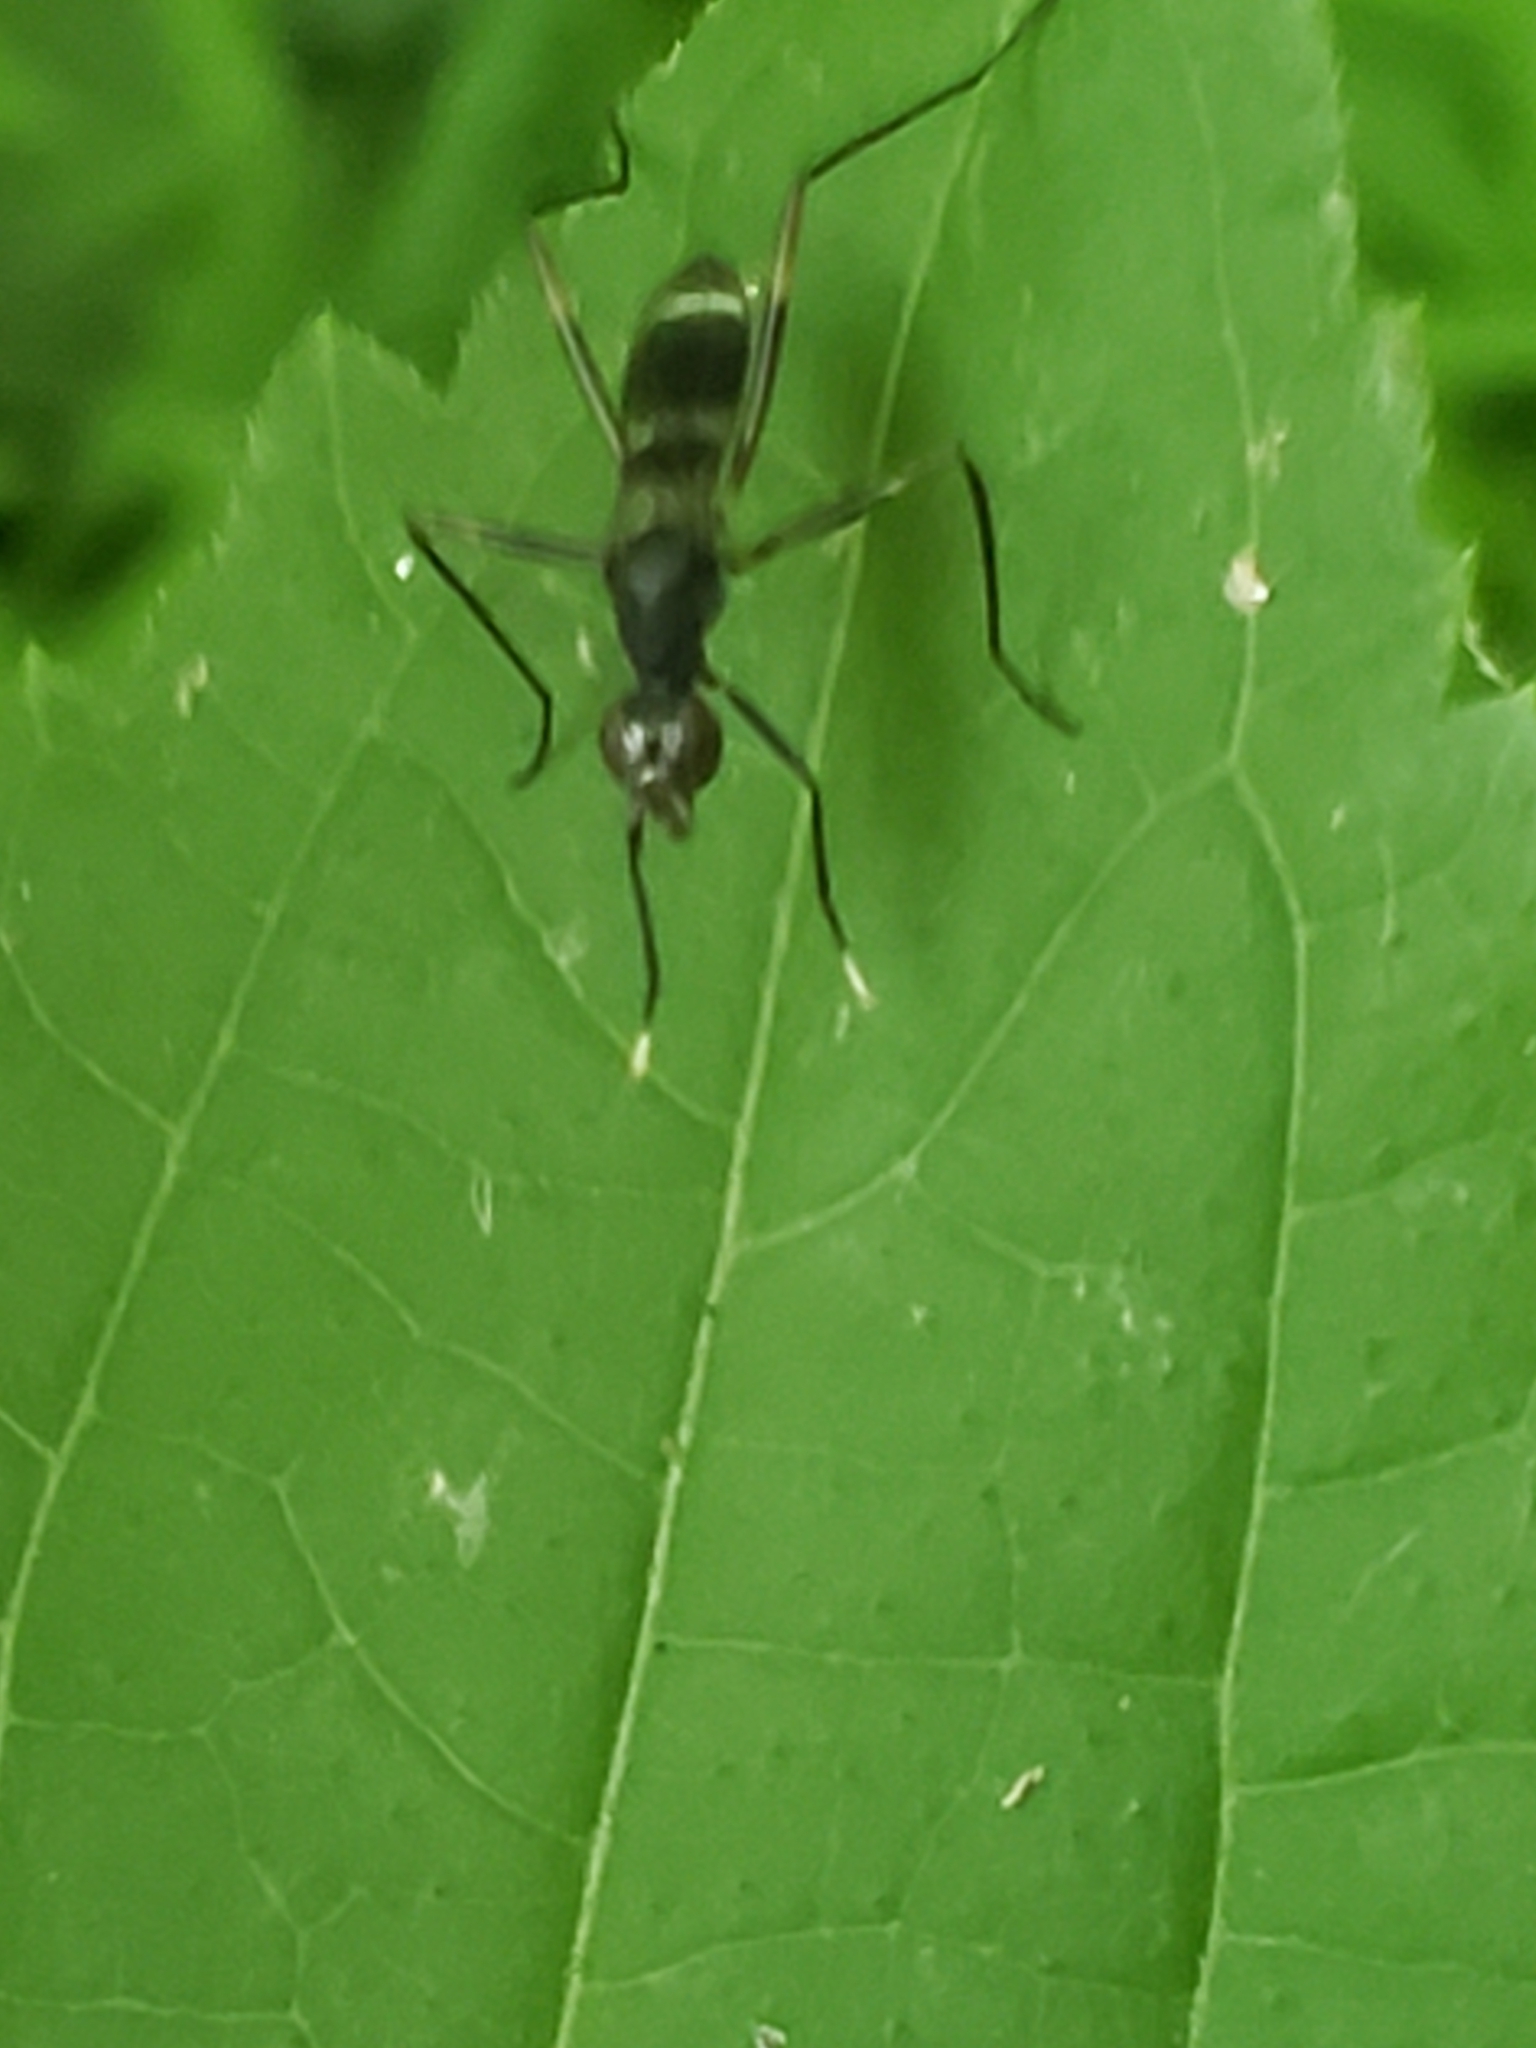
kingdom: Animalia
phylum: Arthropoda
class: Insecta
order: Diptera
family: Micropezidae
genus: Taeniaptera
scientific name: Taeniaptera trivittata
